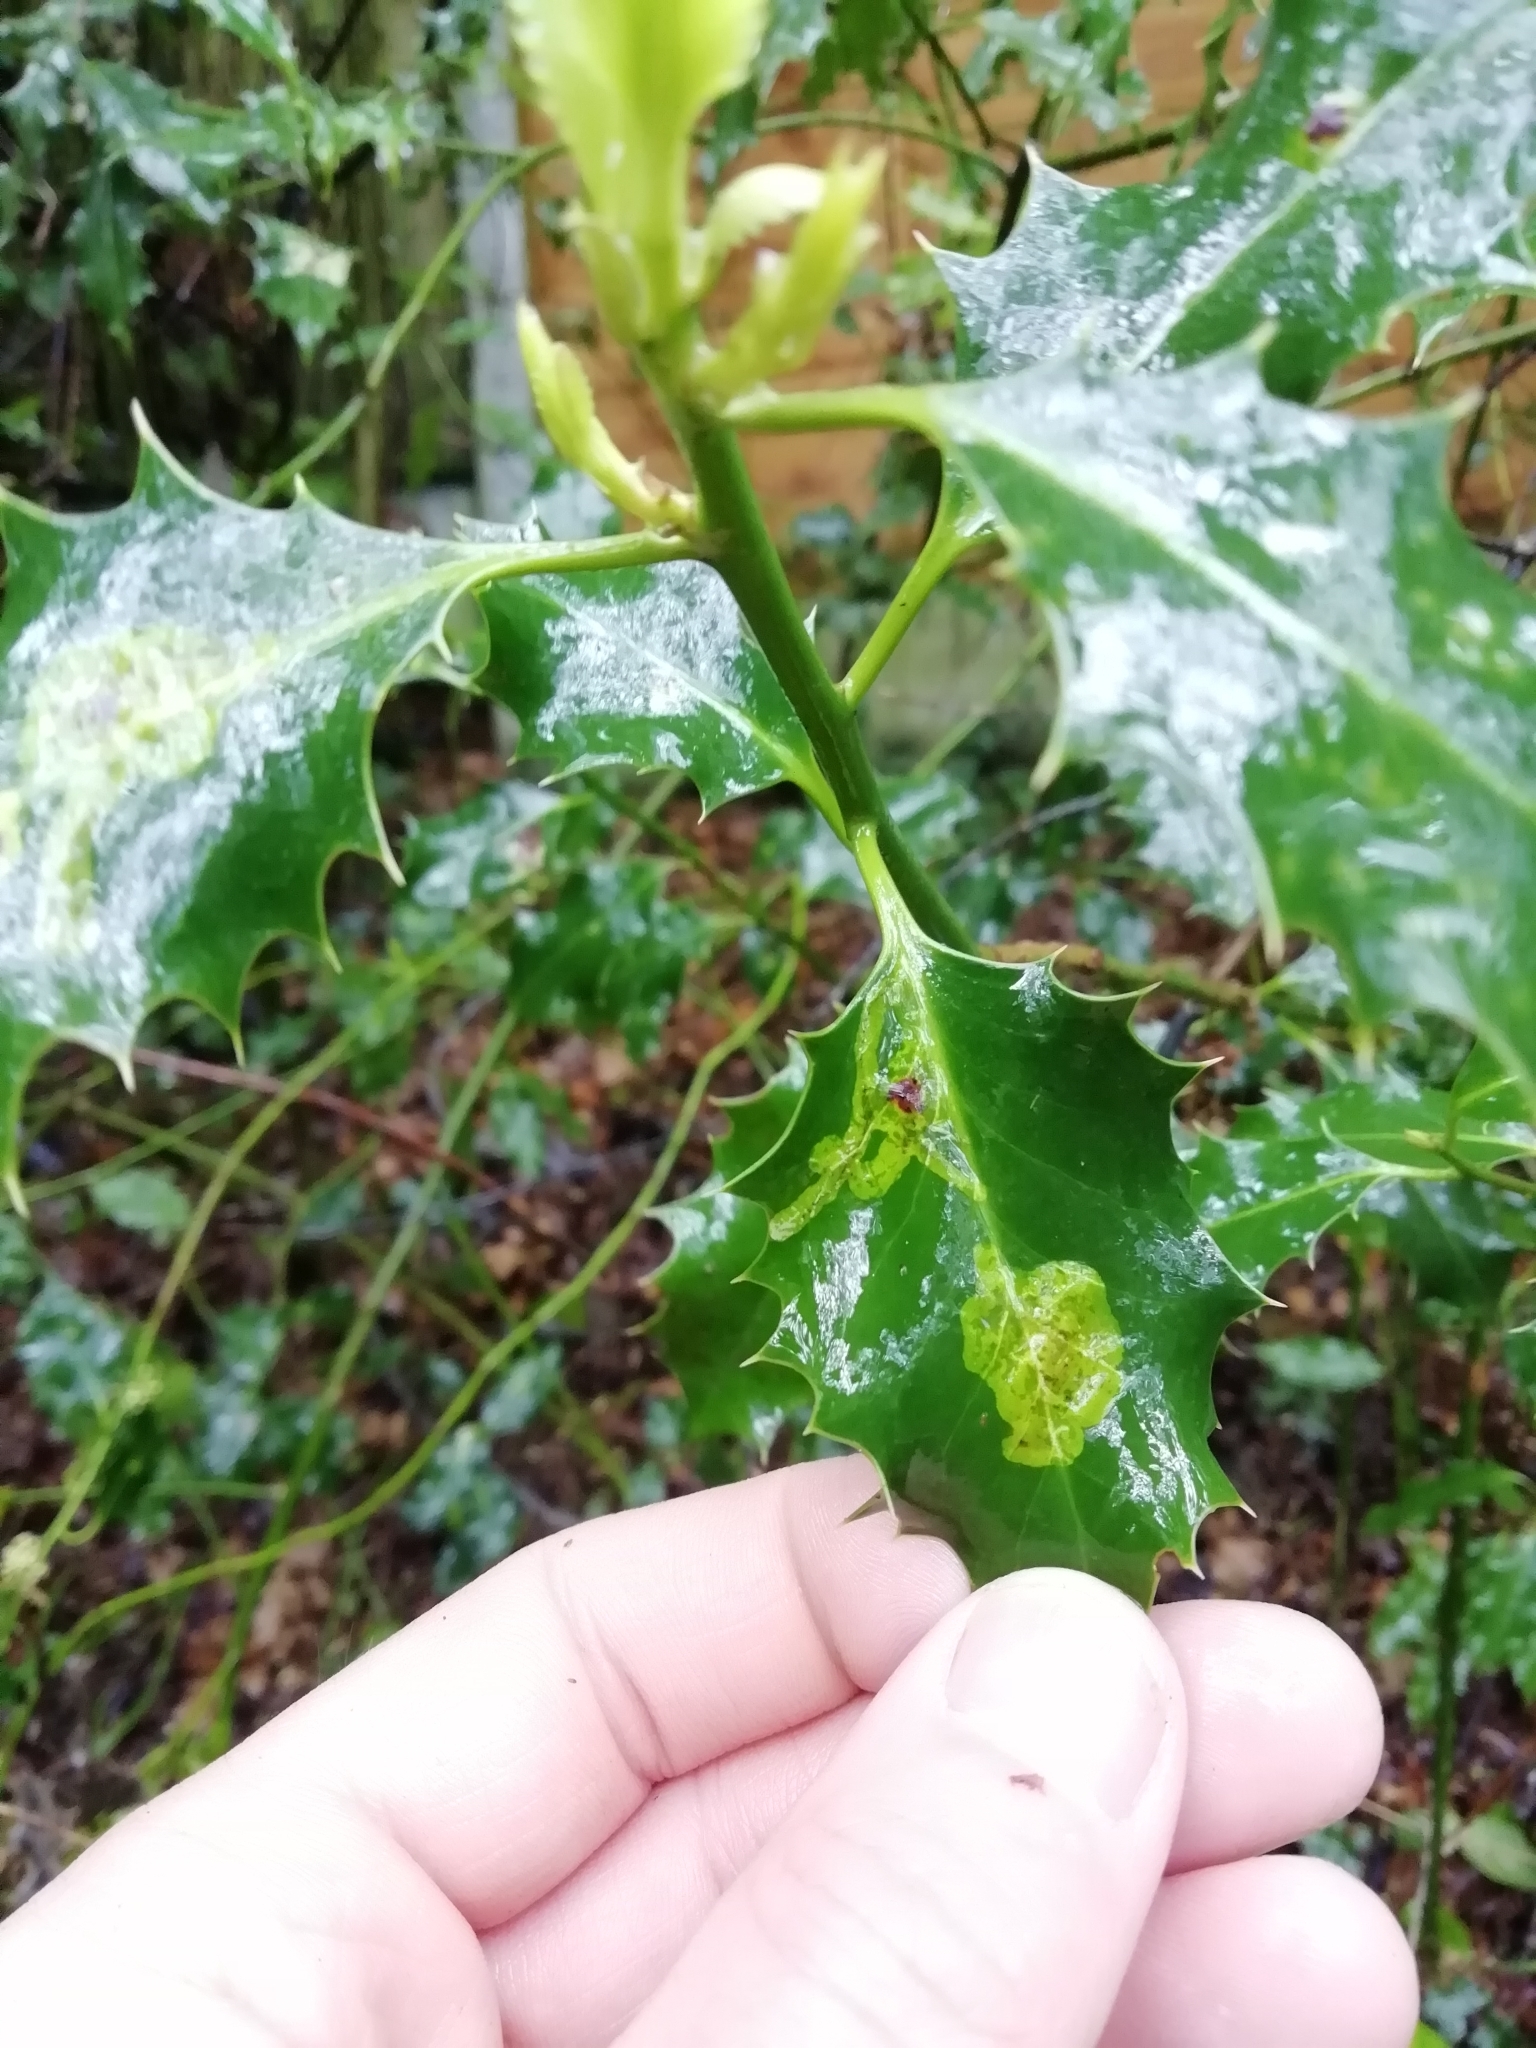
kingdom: Animalia
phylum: Arthropoda
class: Insecta
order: Diptera
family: Agromyzidae
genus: Phytomyza
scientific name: Phytomyza ilicis
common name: Holly leafminer
